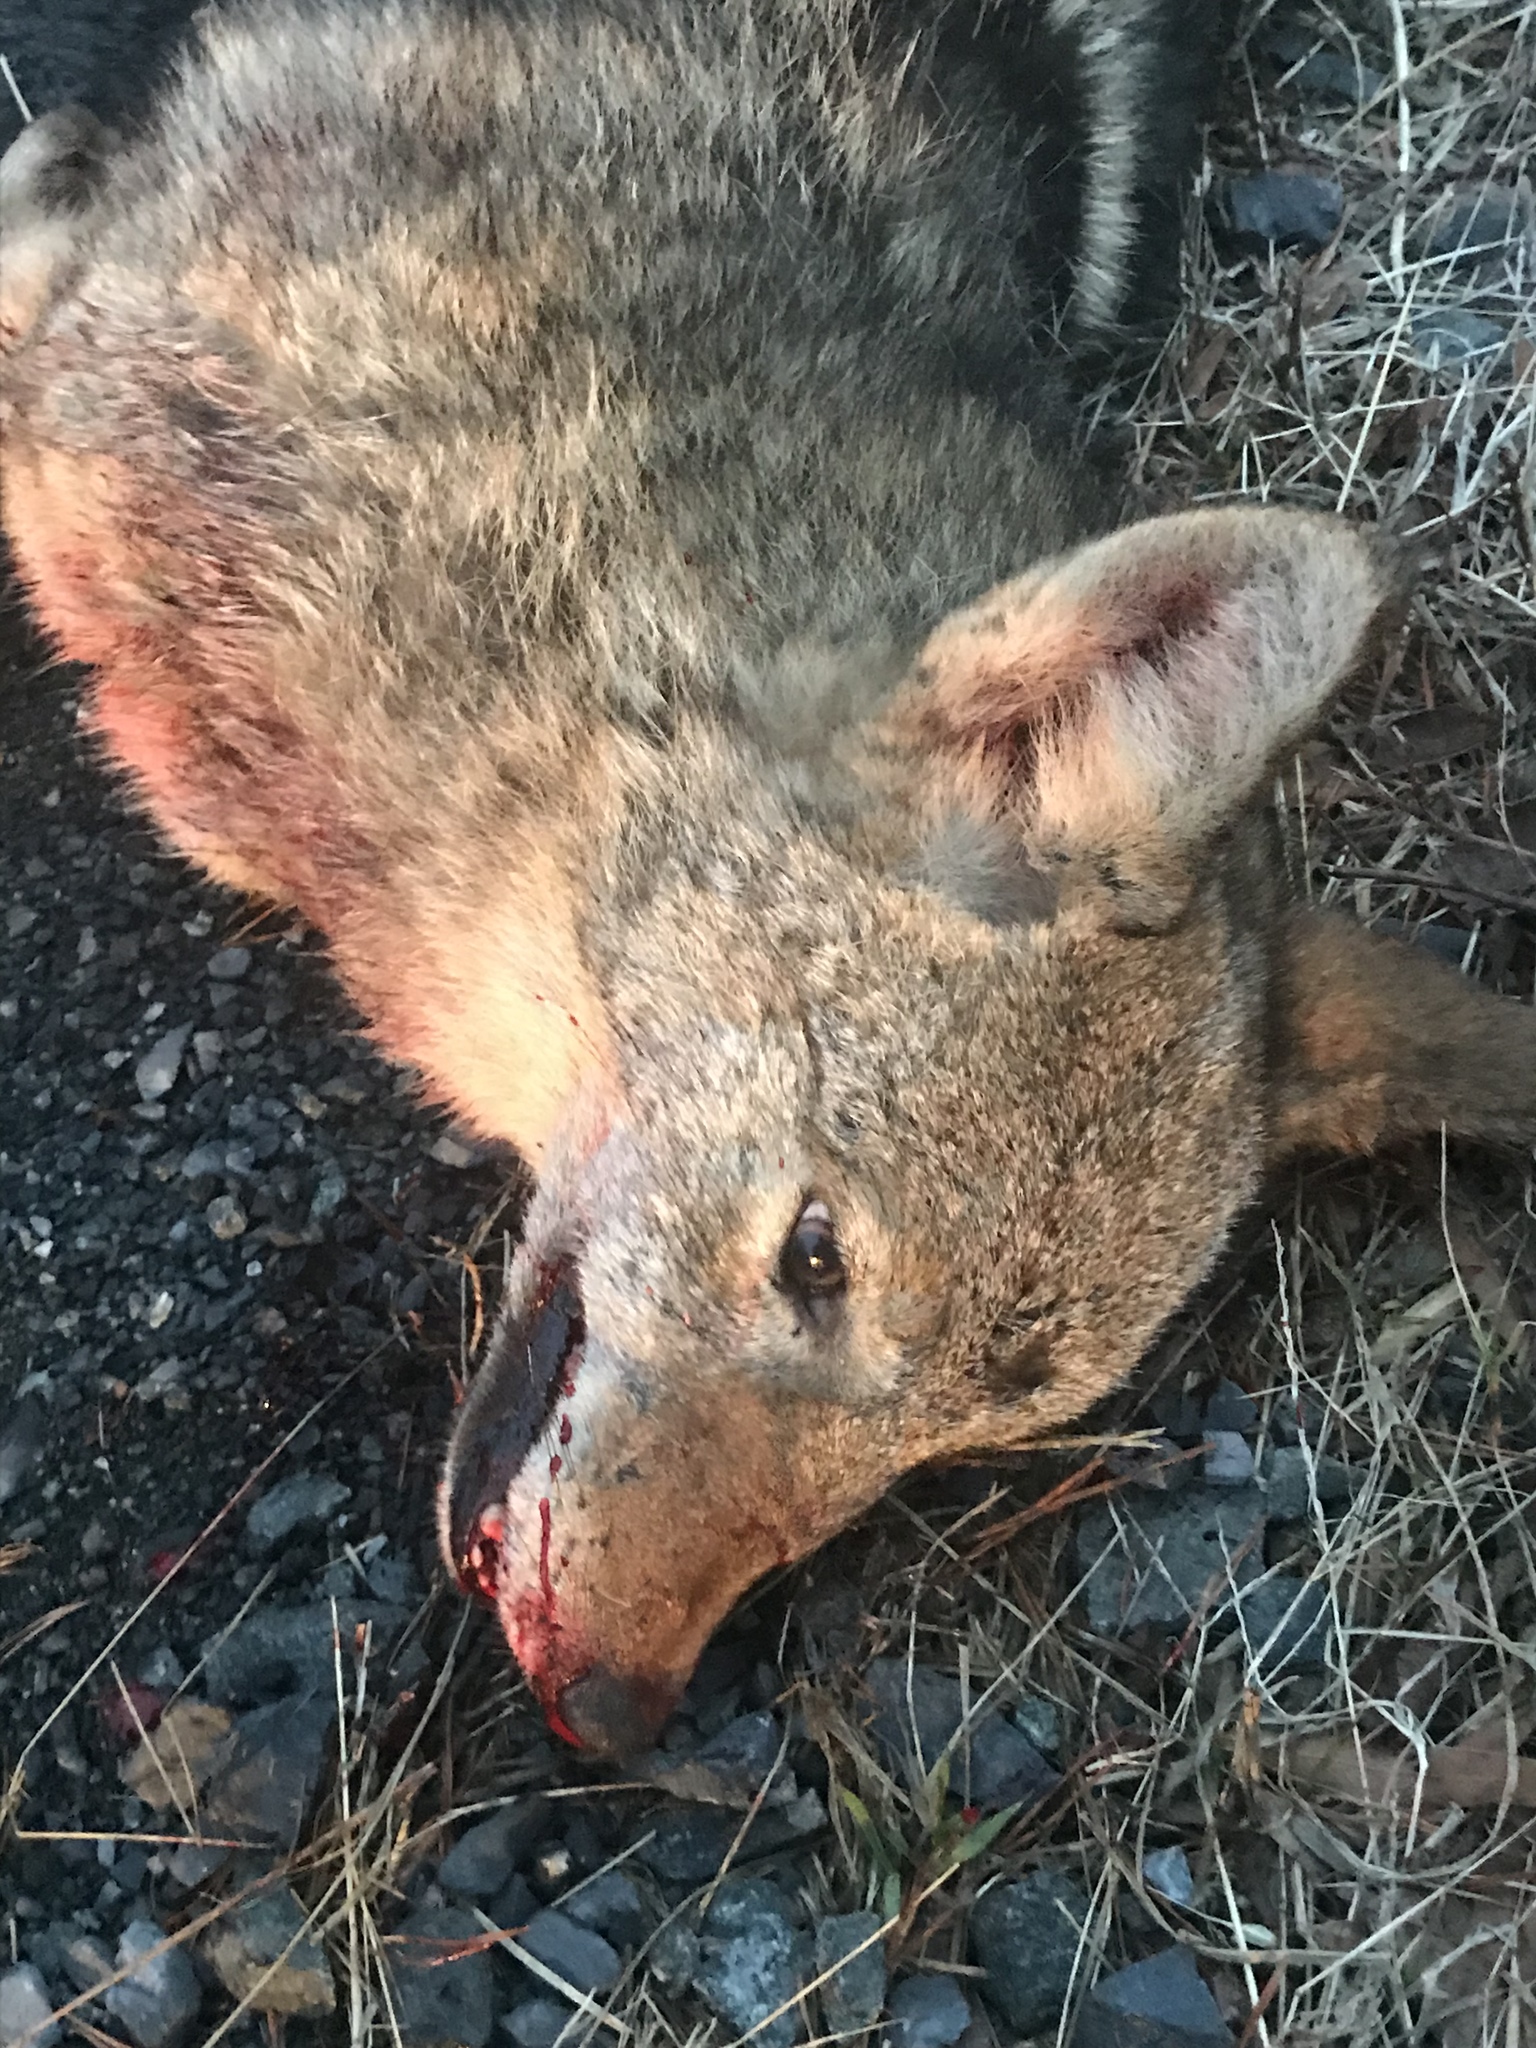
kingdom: Animalia
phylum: Chordata
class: Mammalia
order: Carnivora
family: Canidae
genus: Canis
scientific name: Canis latrans
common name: Coyote
